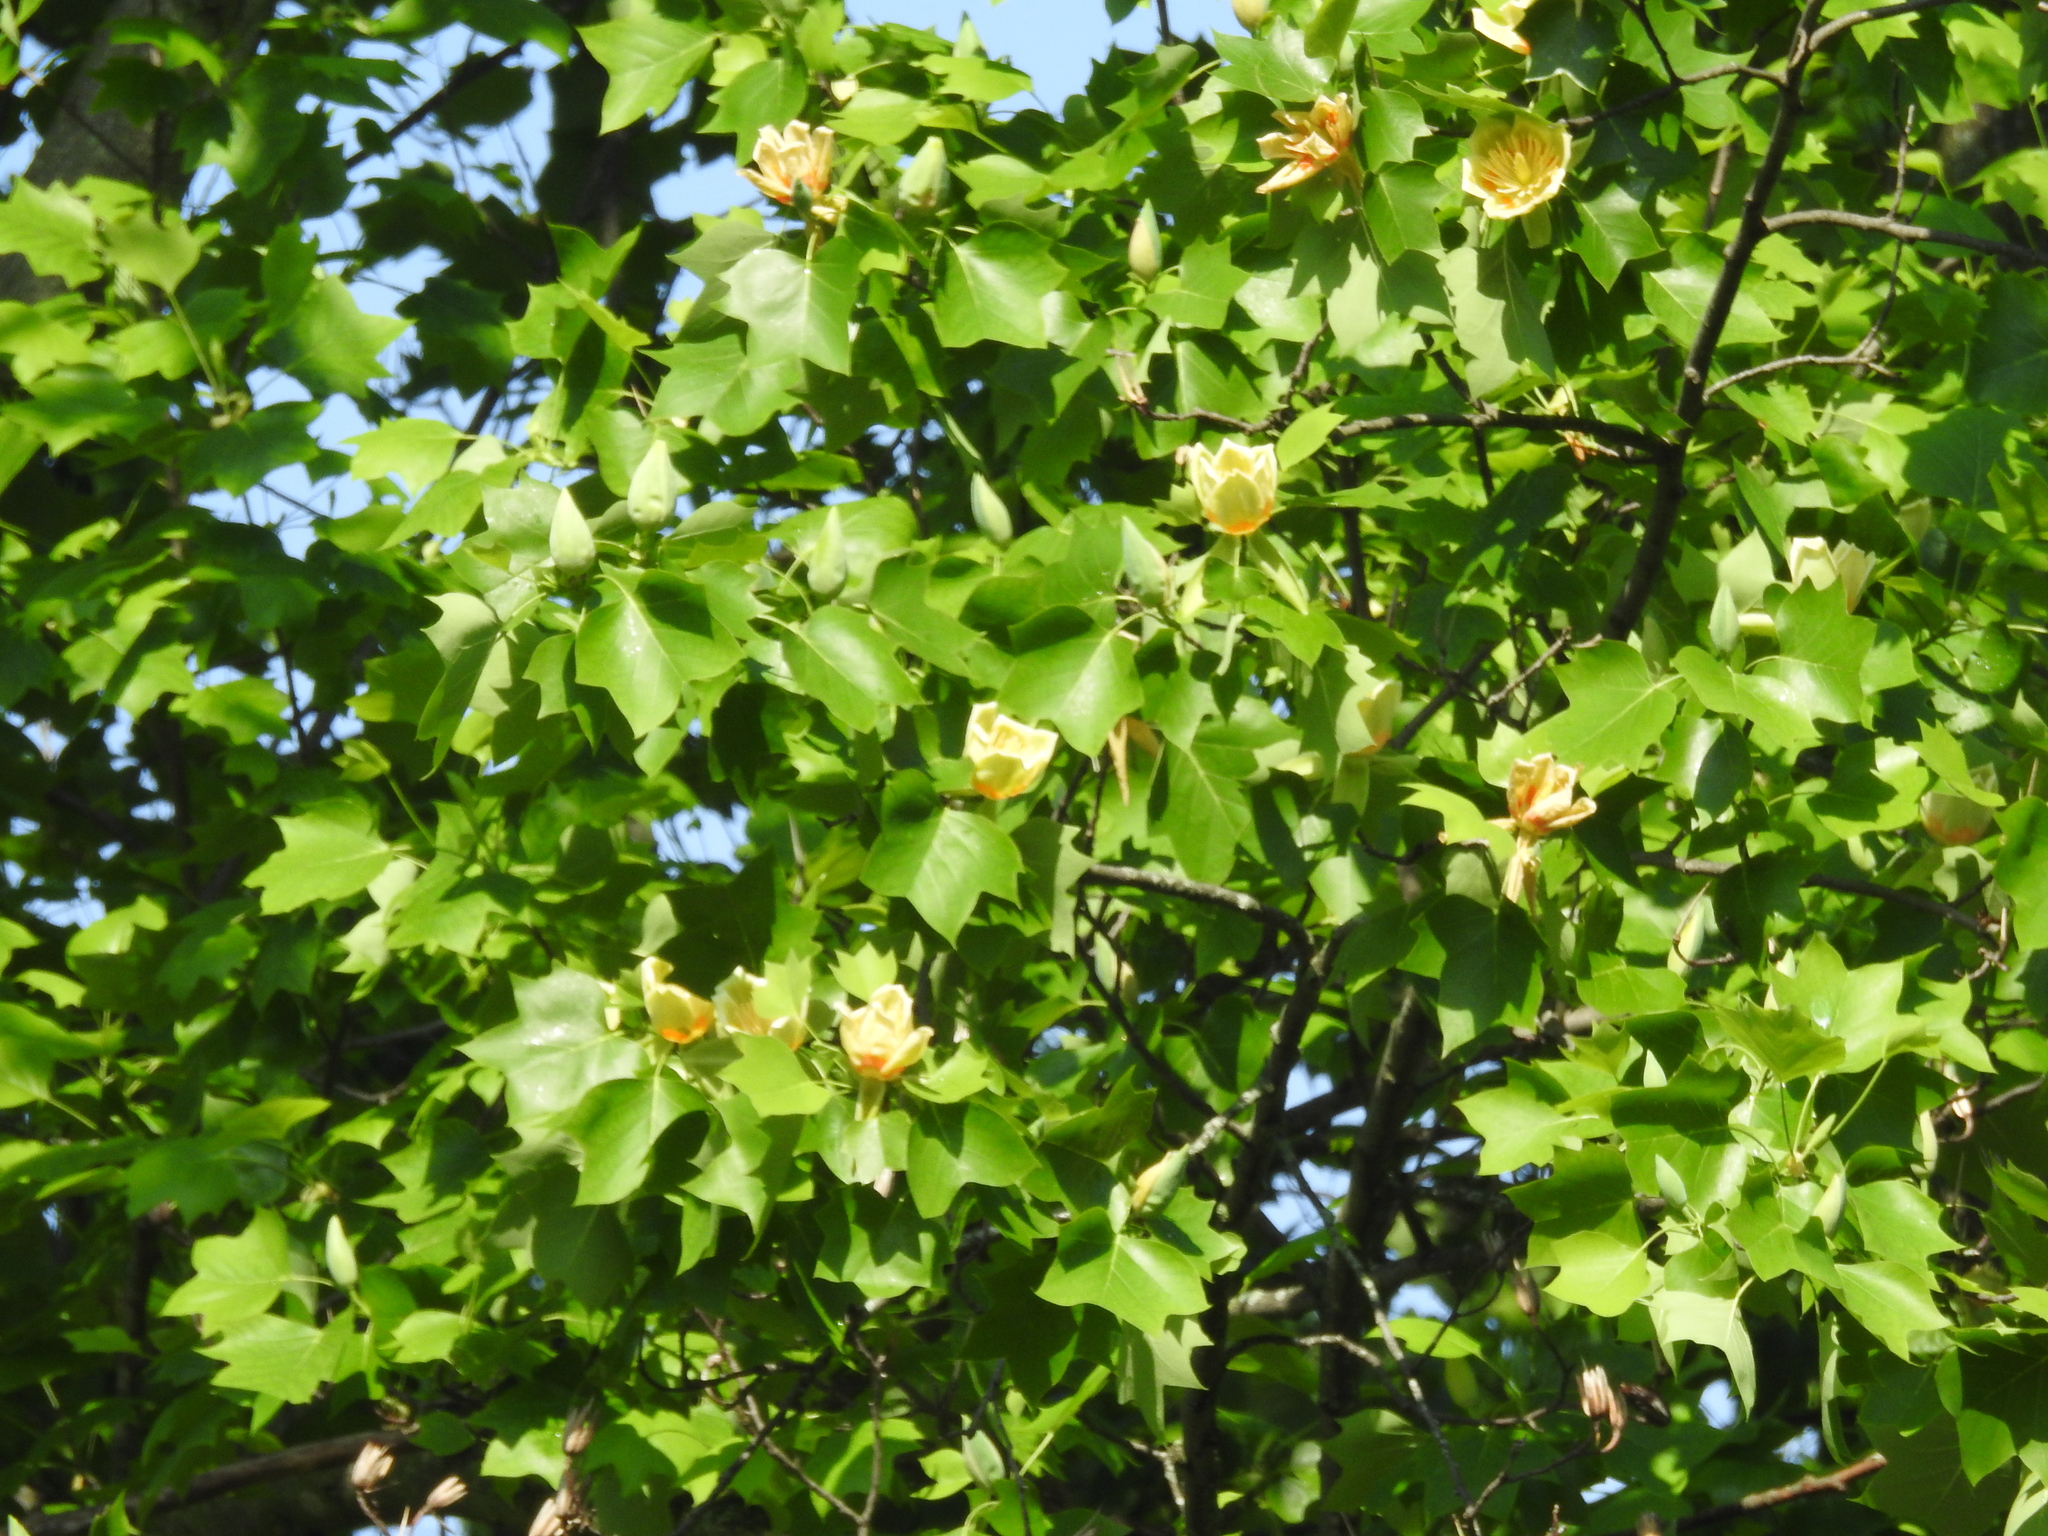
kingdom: Plantae
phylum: Tracheophyta
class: Magnoliopsida
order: Magnoliales
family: Magnoliaceae
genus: Liriodendron
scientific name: Liriodendron tulipifera
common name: Tulip tree
